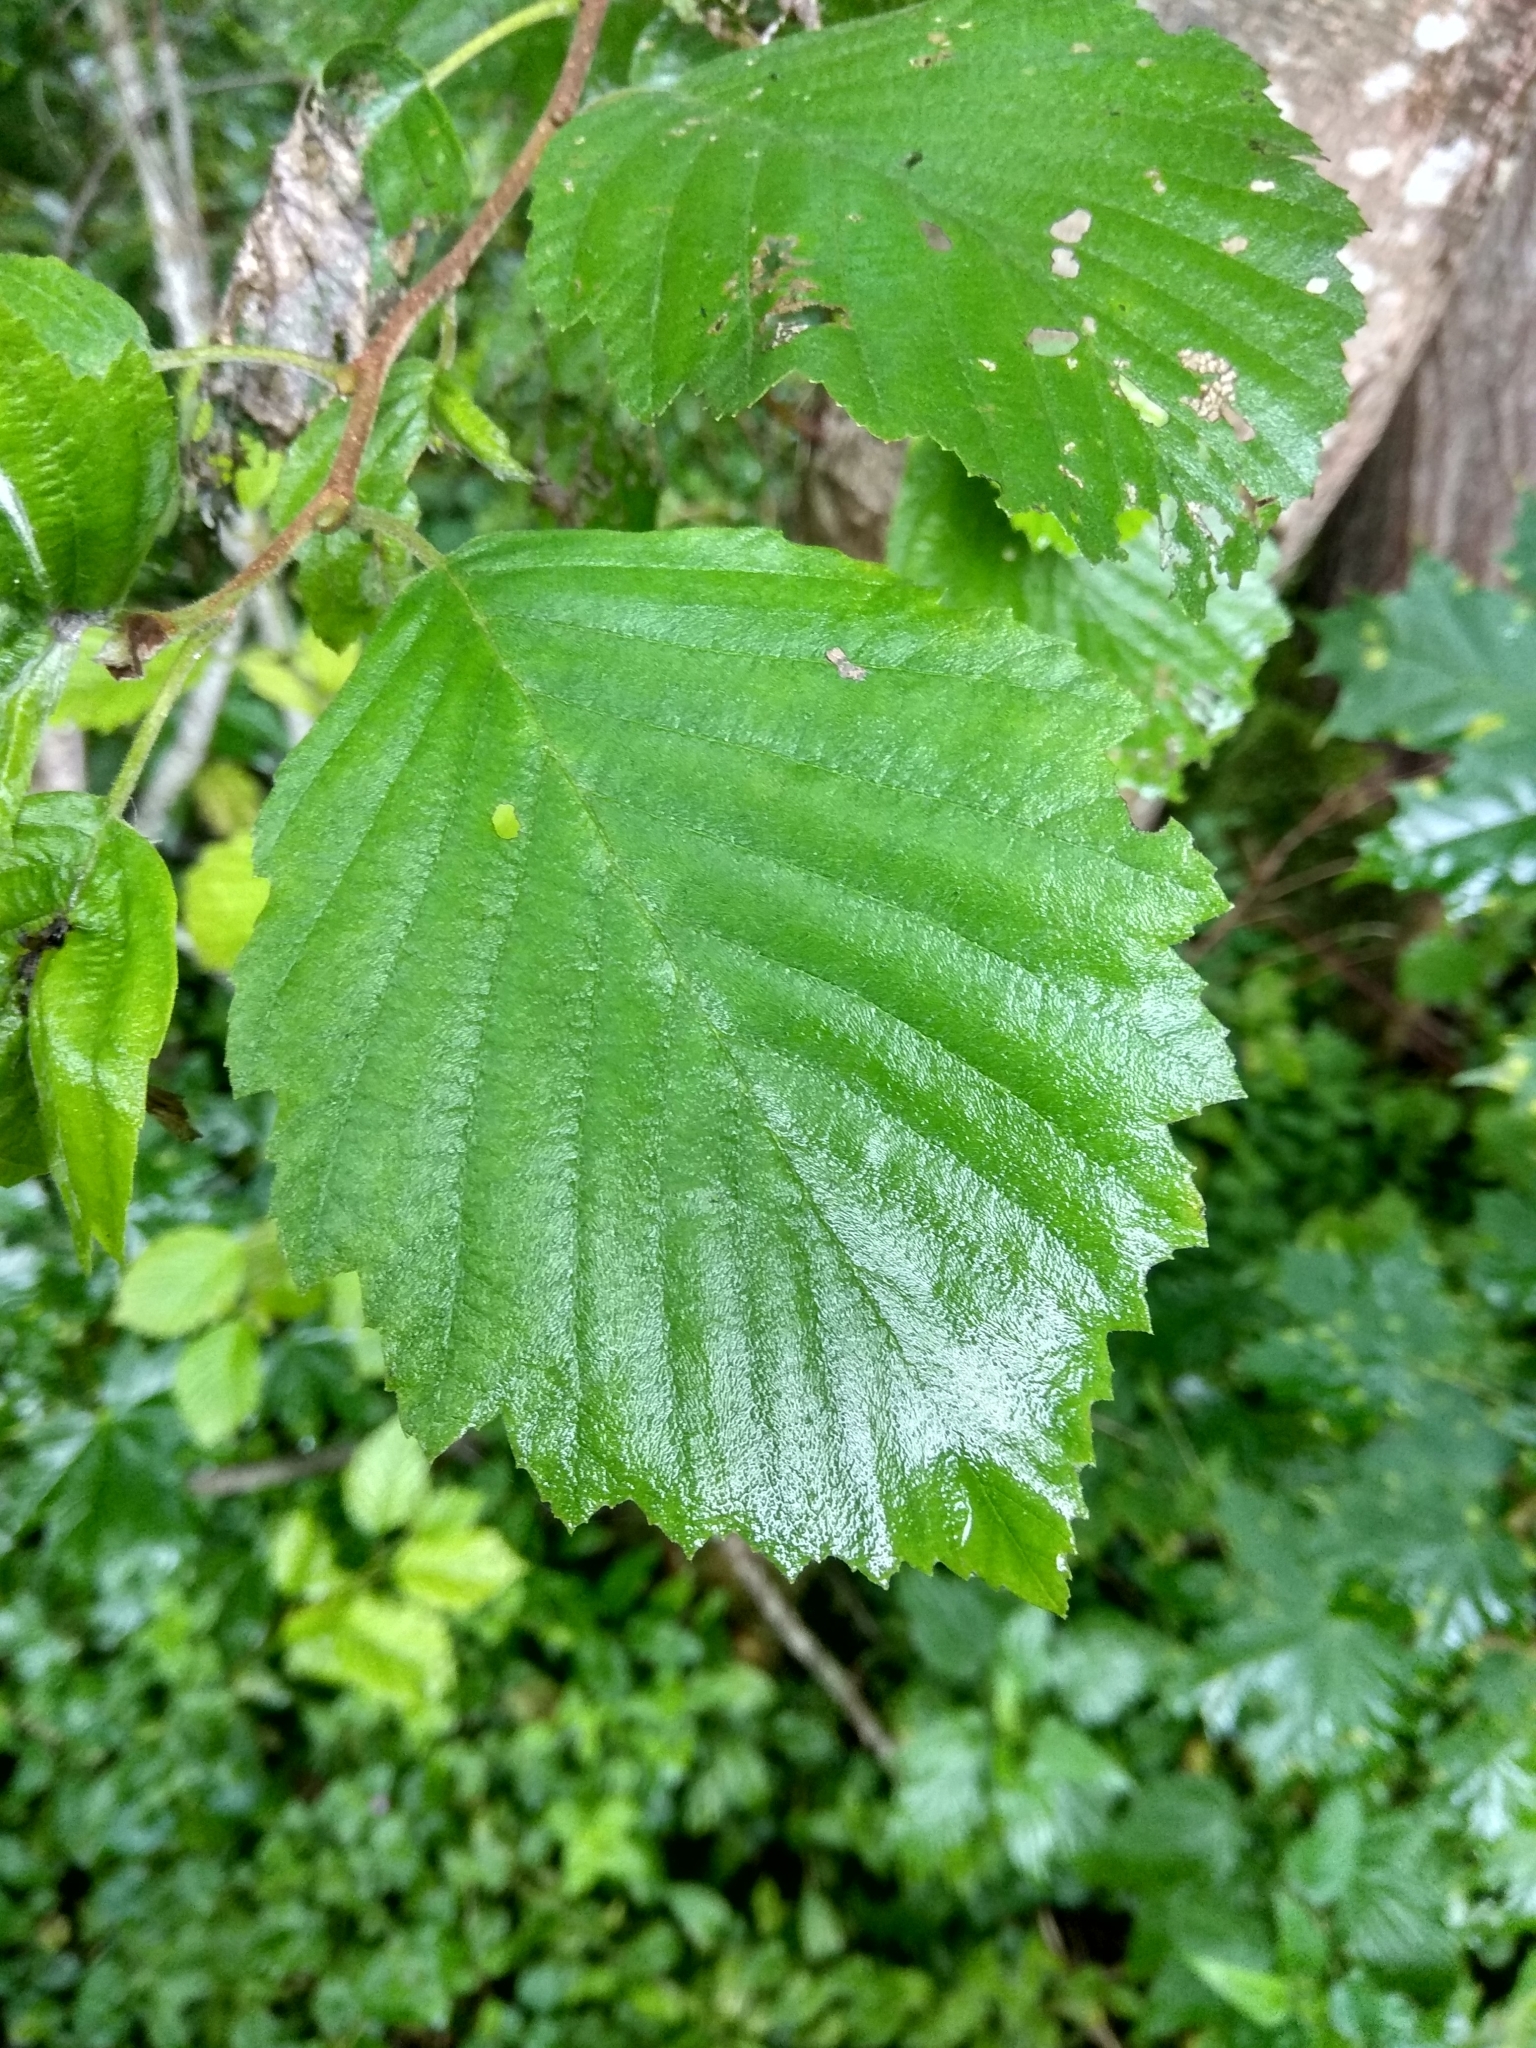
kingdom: Plantae
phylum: Tracheophyta
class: Magnoliopsida
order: Fagales
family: Betulaceae
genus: Alnus
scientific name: Alnus incana
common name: Grey alder
